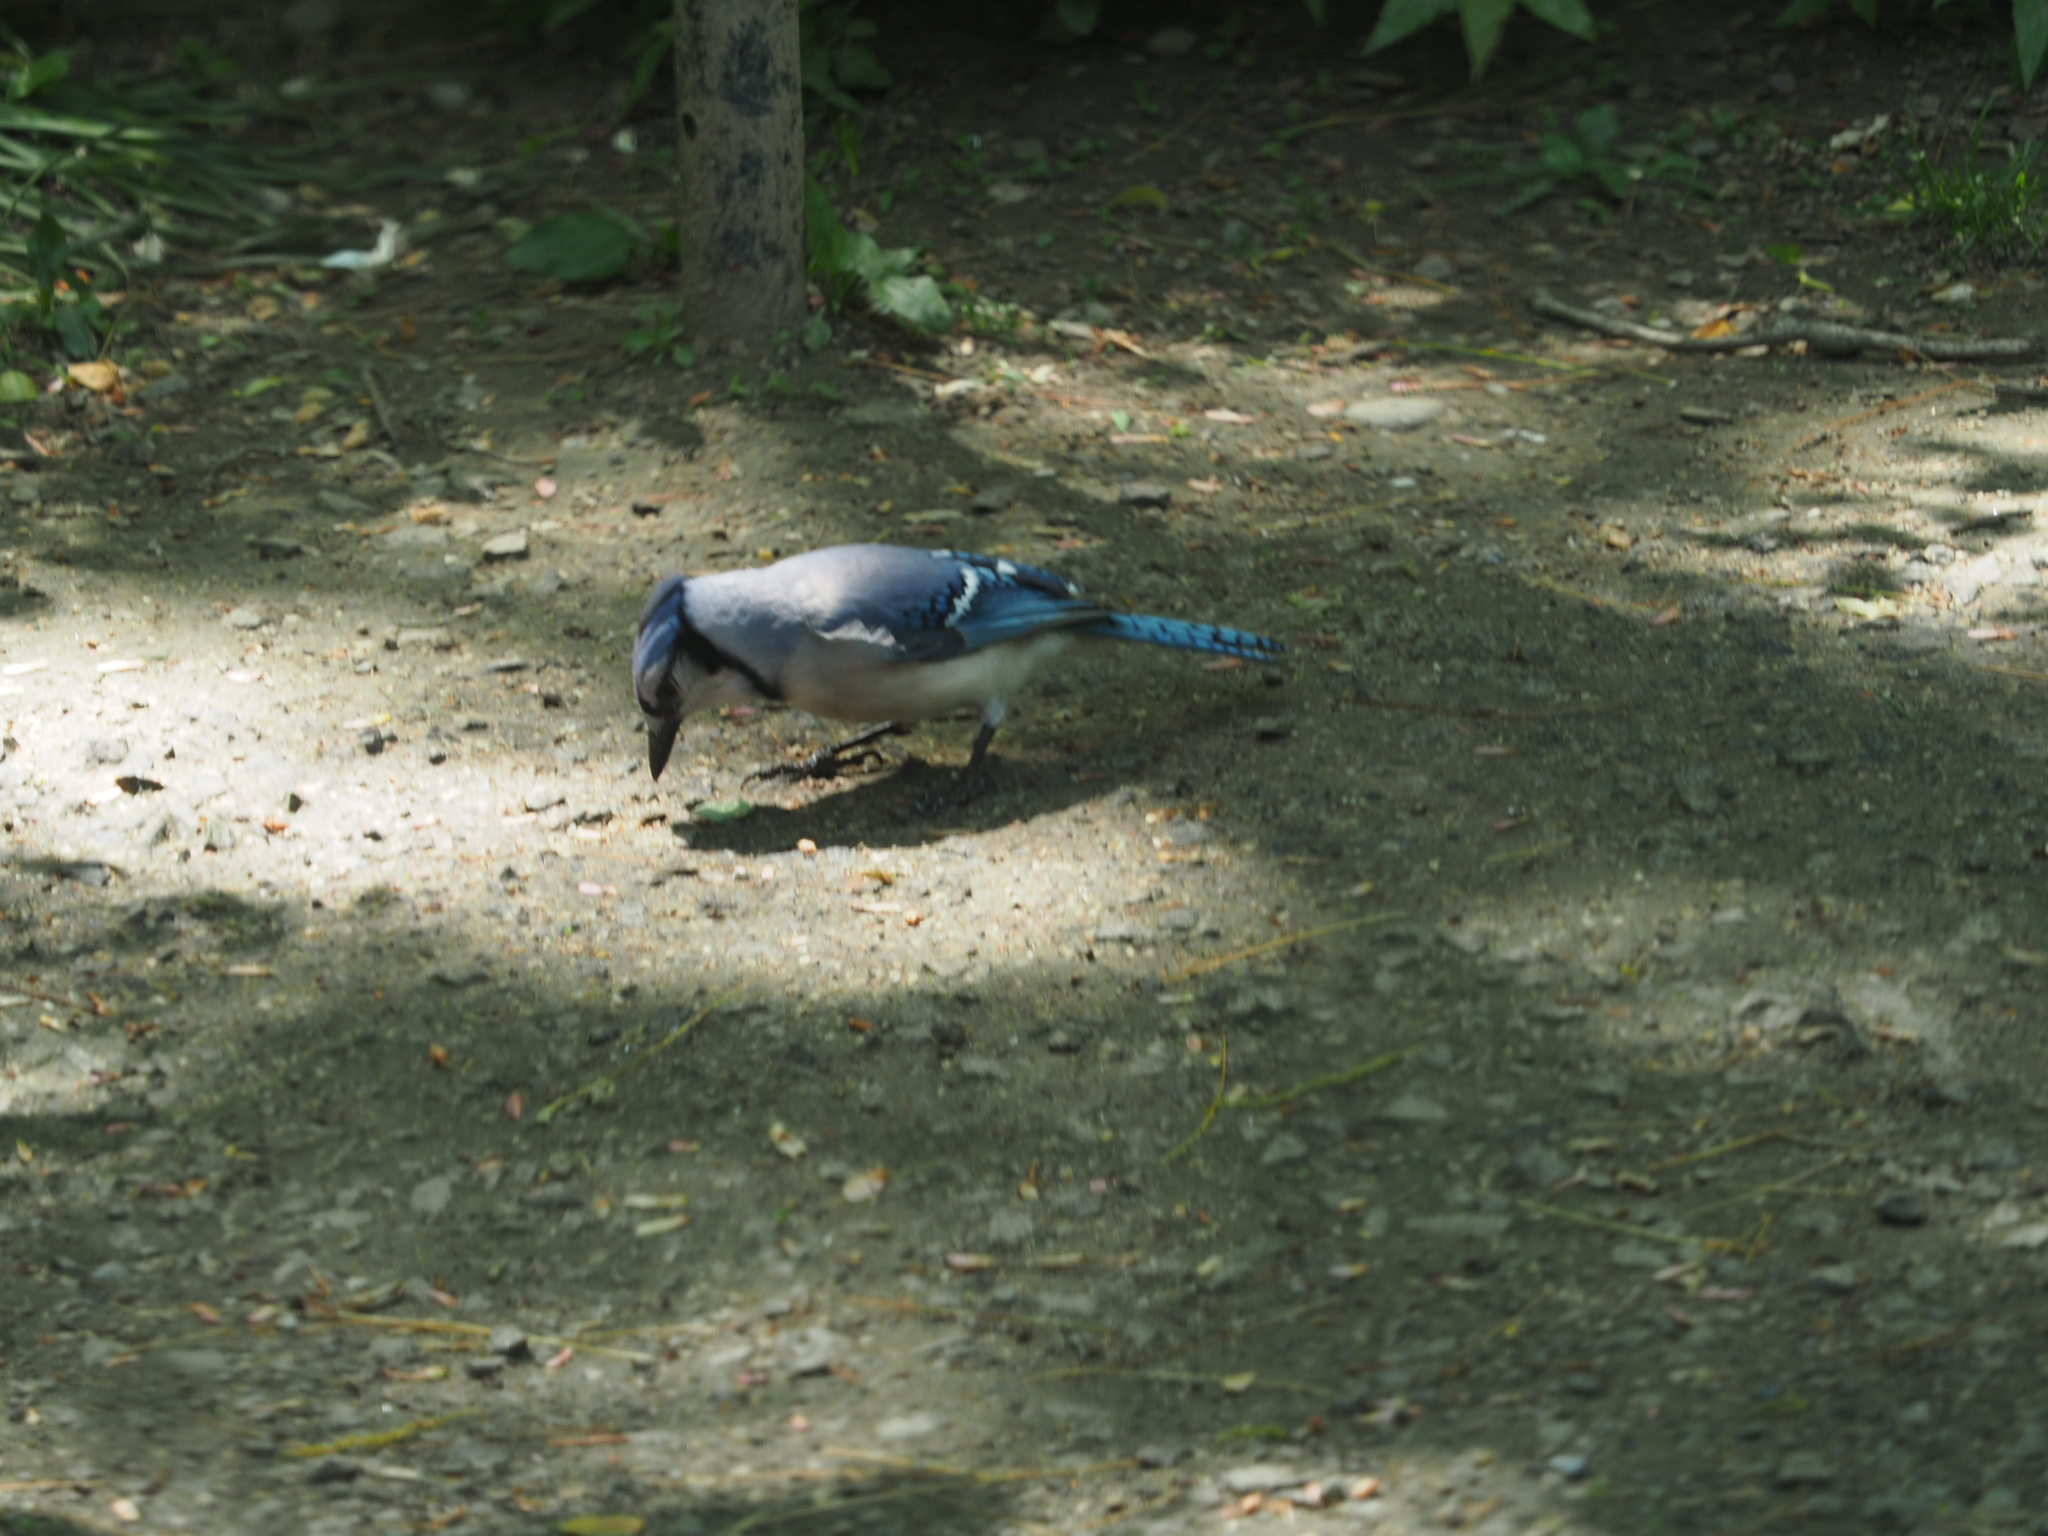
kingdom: Animalia
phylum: Chordata
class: Aves
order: Passeriformes
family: Corvidae
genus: Cyanocitta
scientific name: Cyanocitta cristata
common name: Blue jay
